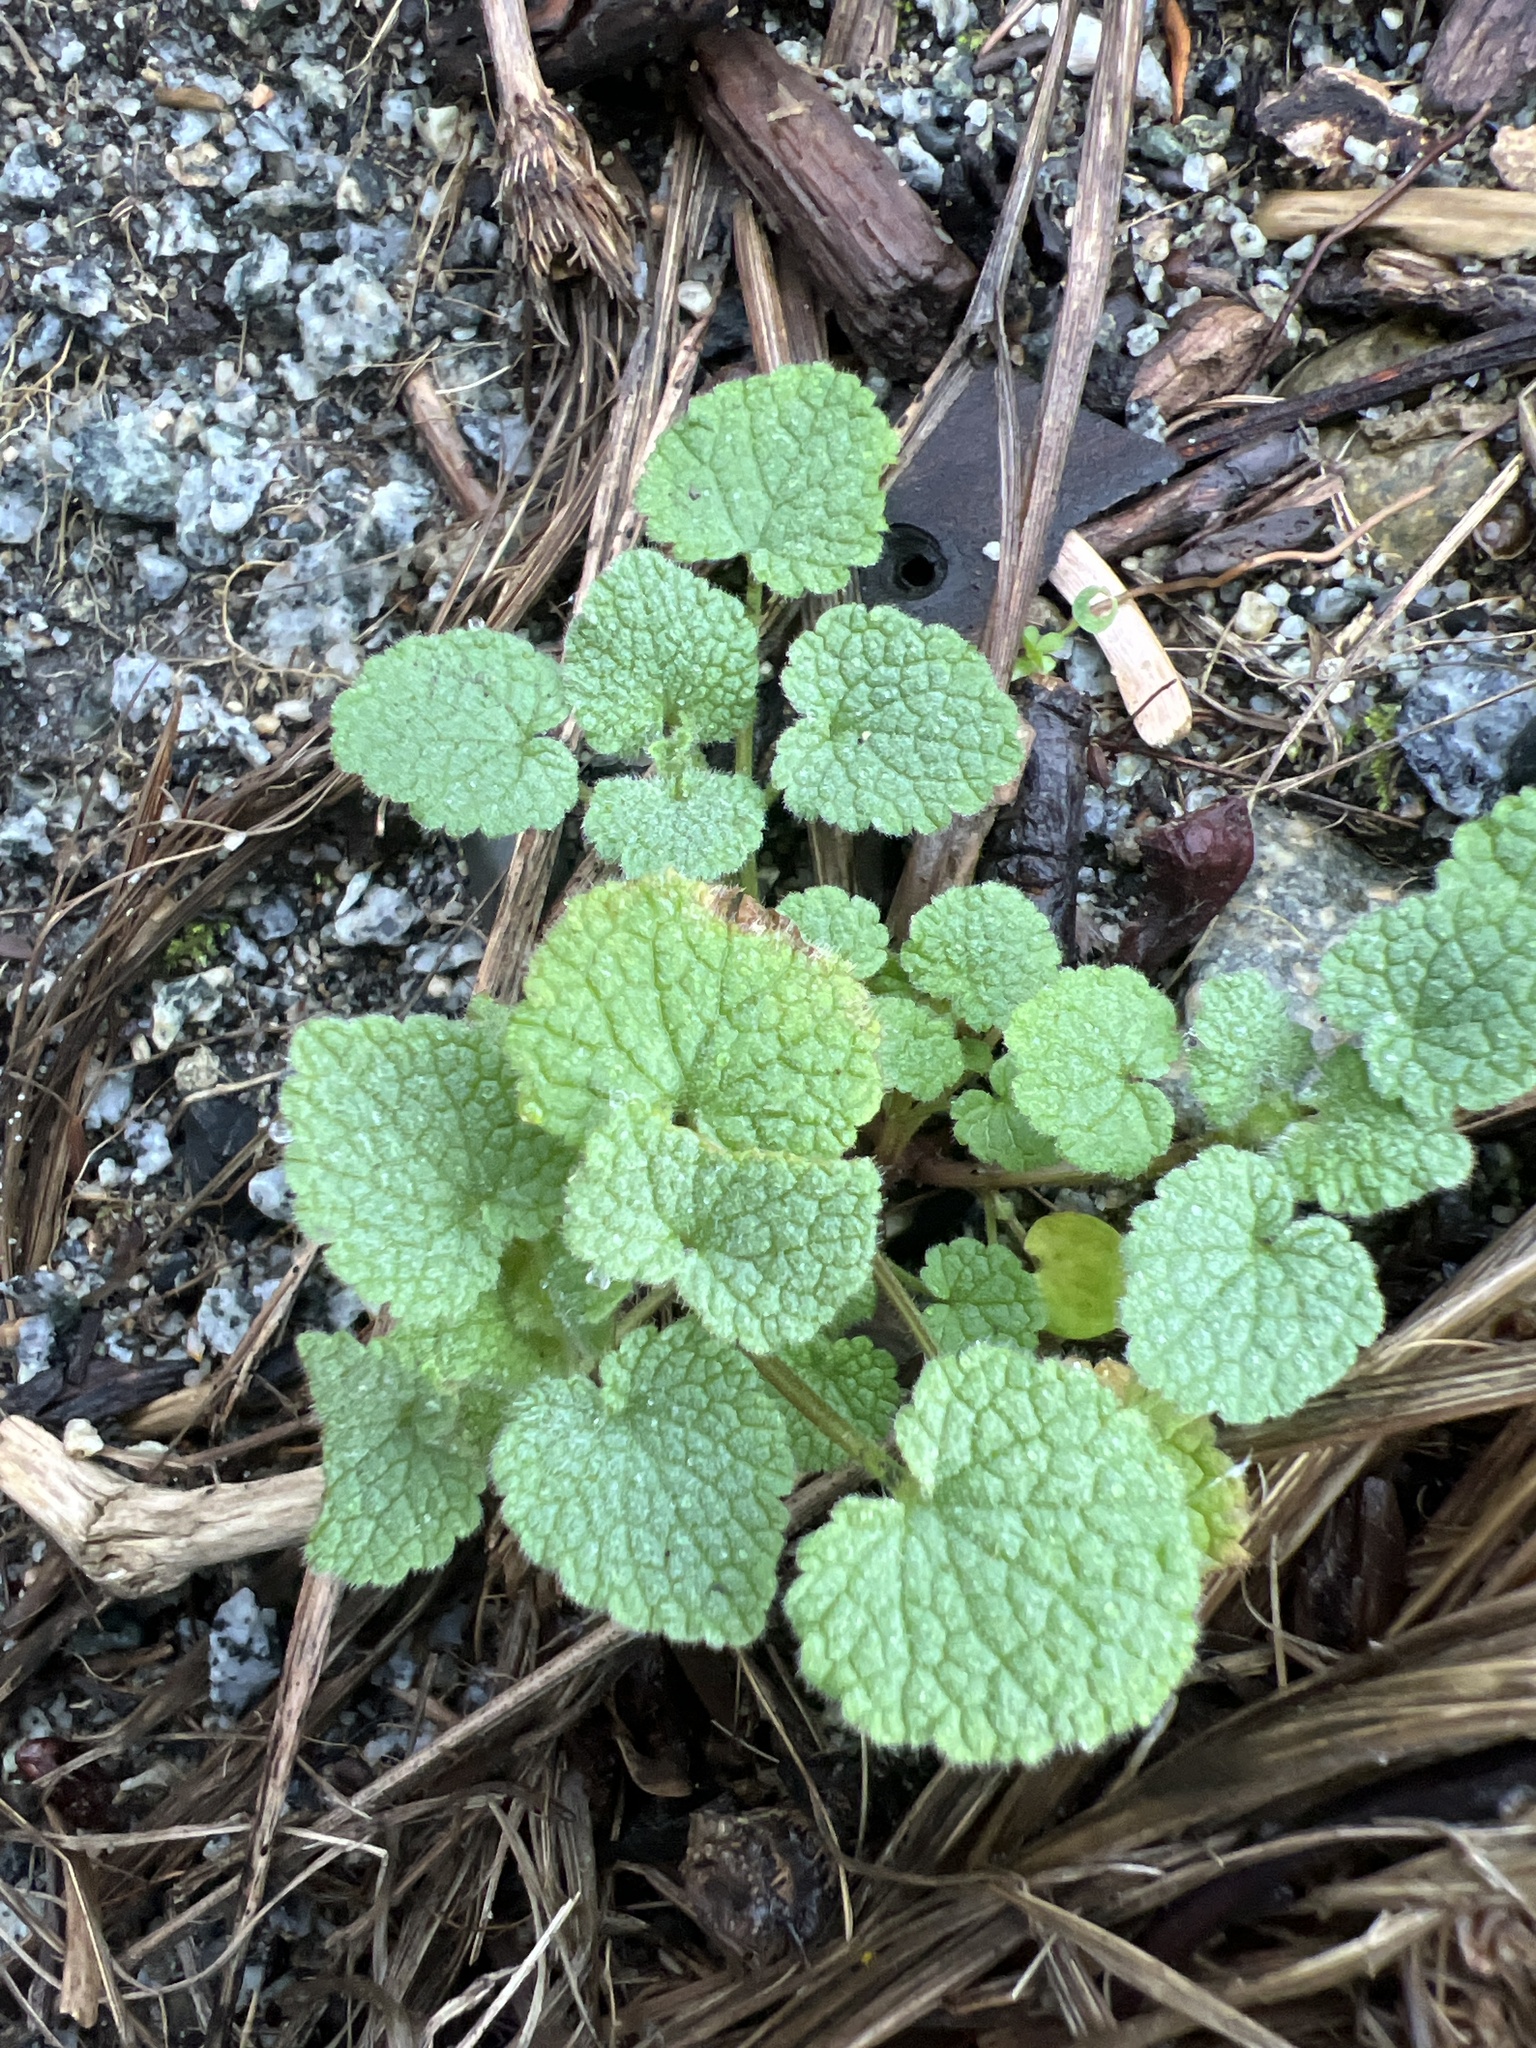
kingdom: Plantae
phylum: Tracheophyta
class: Magnoliopsida
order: Lamiales
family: Lamiaceae
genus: Lamium
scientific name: Lamium purpureum
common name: Red dead-nettle
